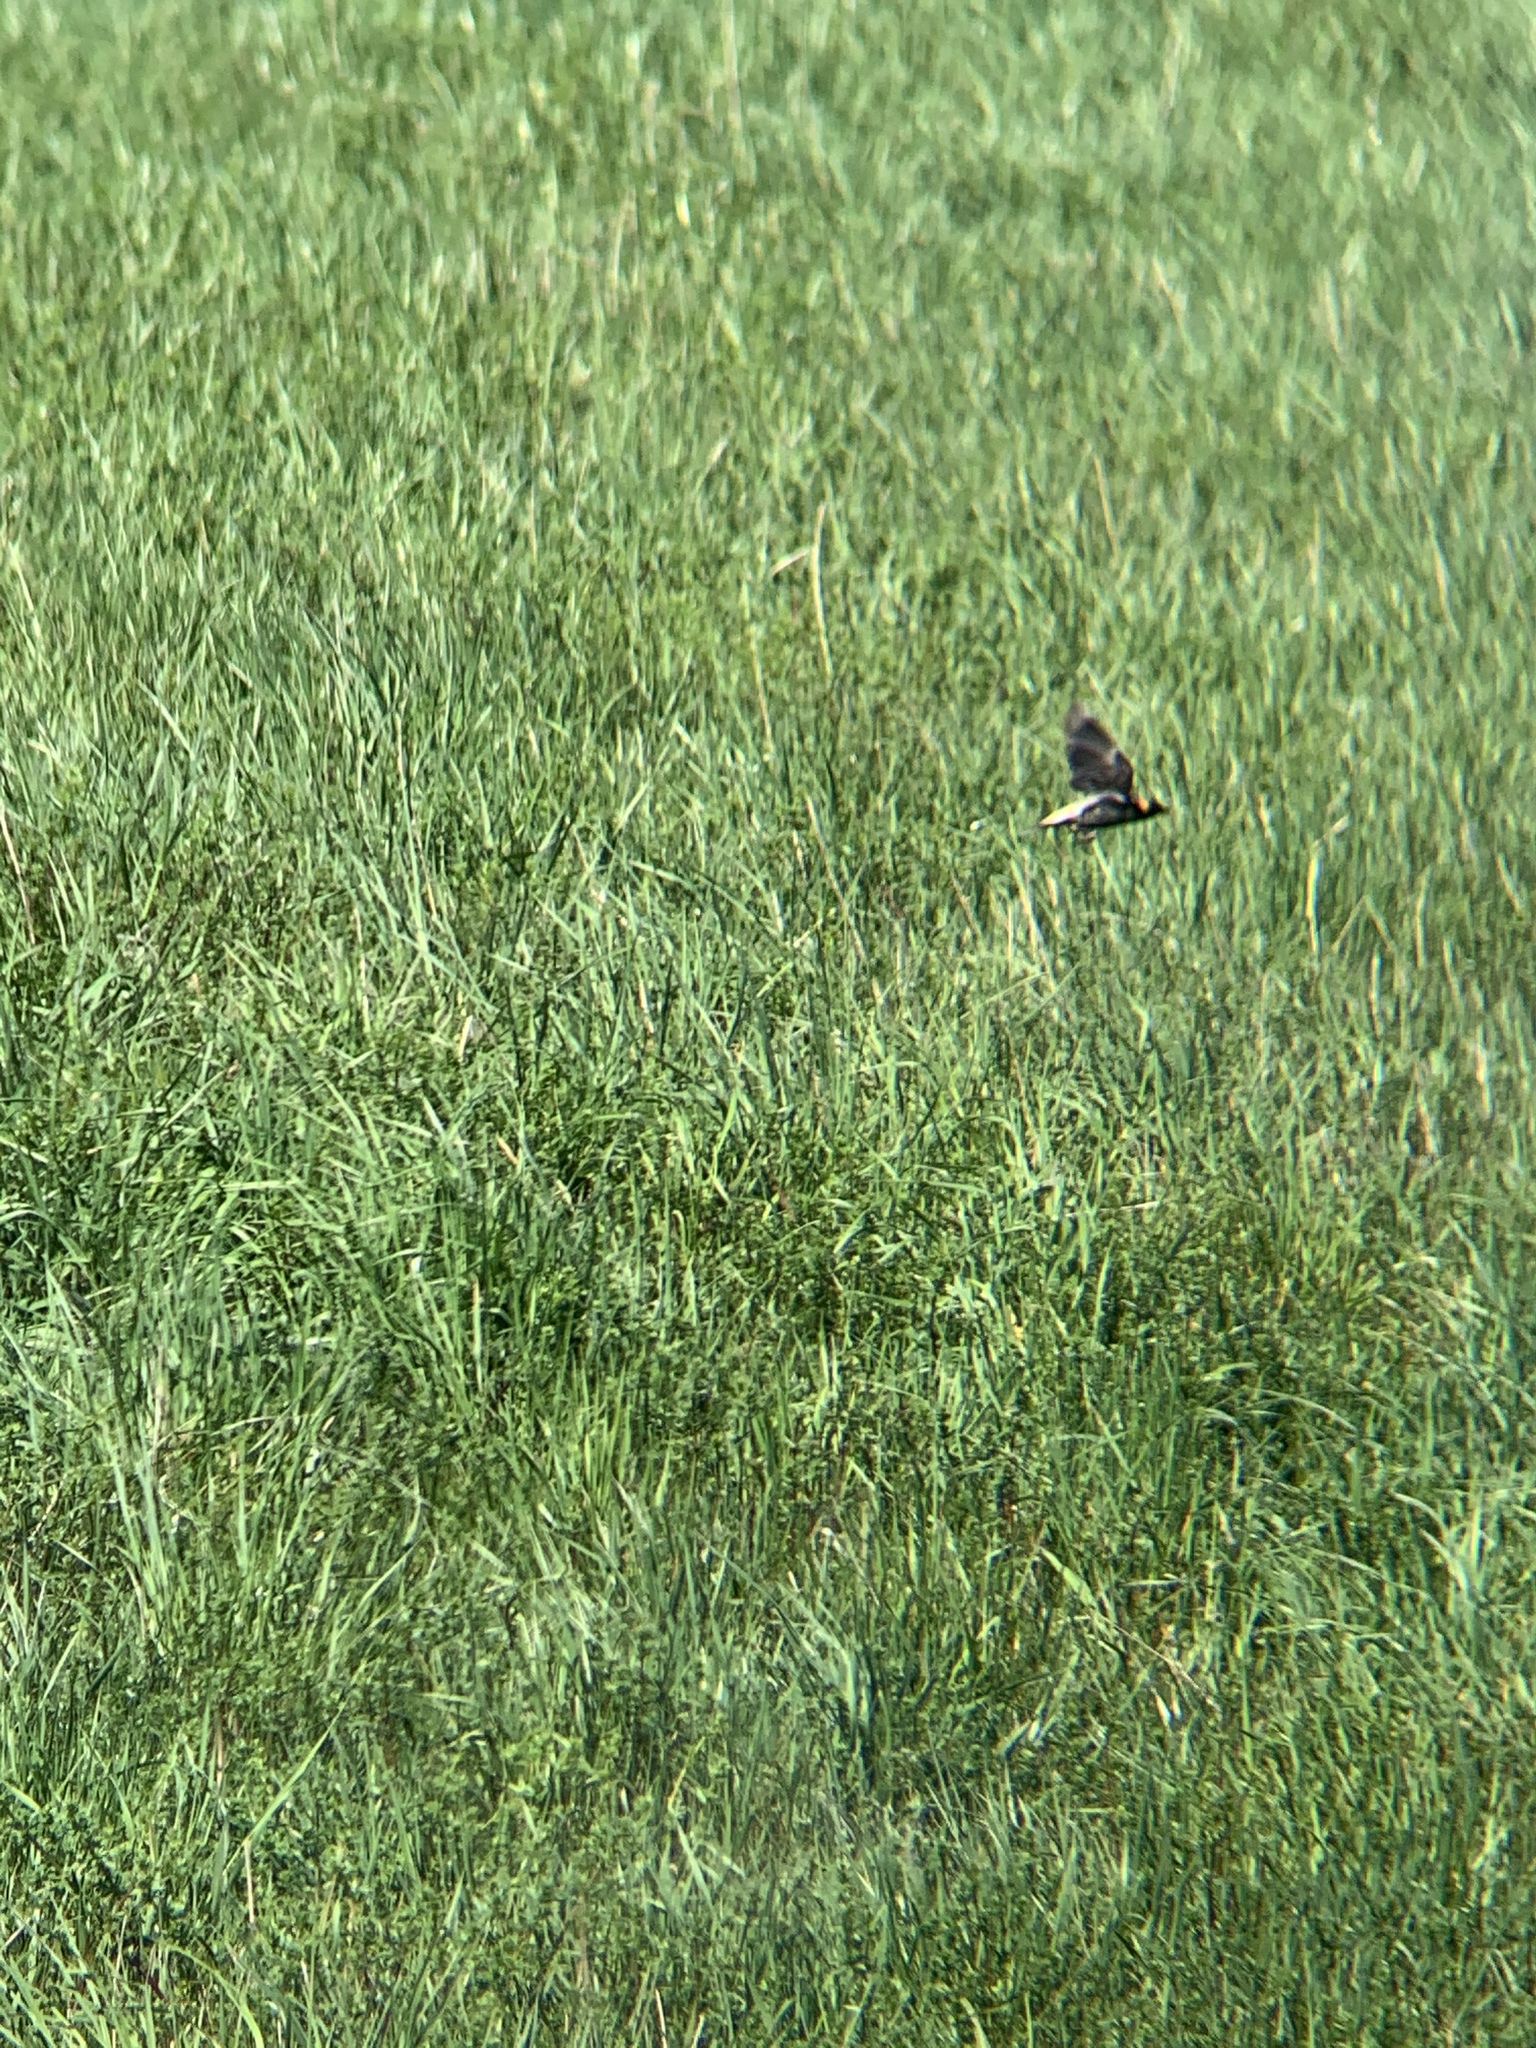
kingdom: Animalia
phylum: Chordata
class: Aves
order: Passeriformes
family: Icteridae
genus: Dolichonyx
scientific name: Dolichonyx oryzivorus
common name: Bobolink
